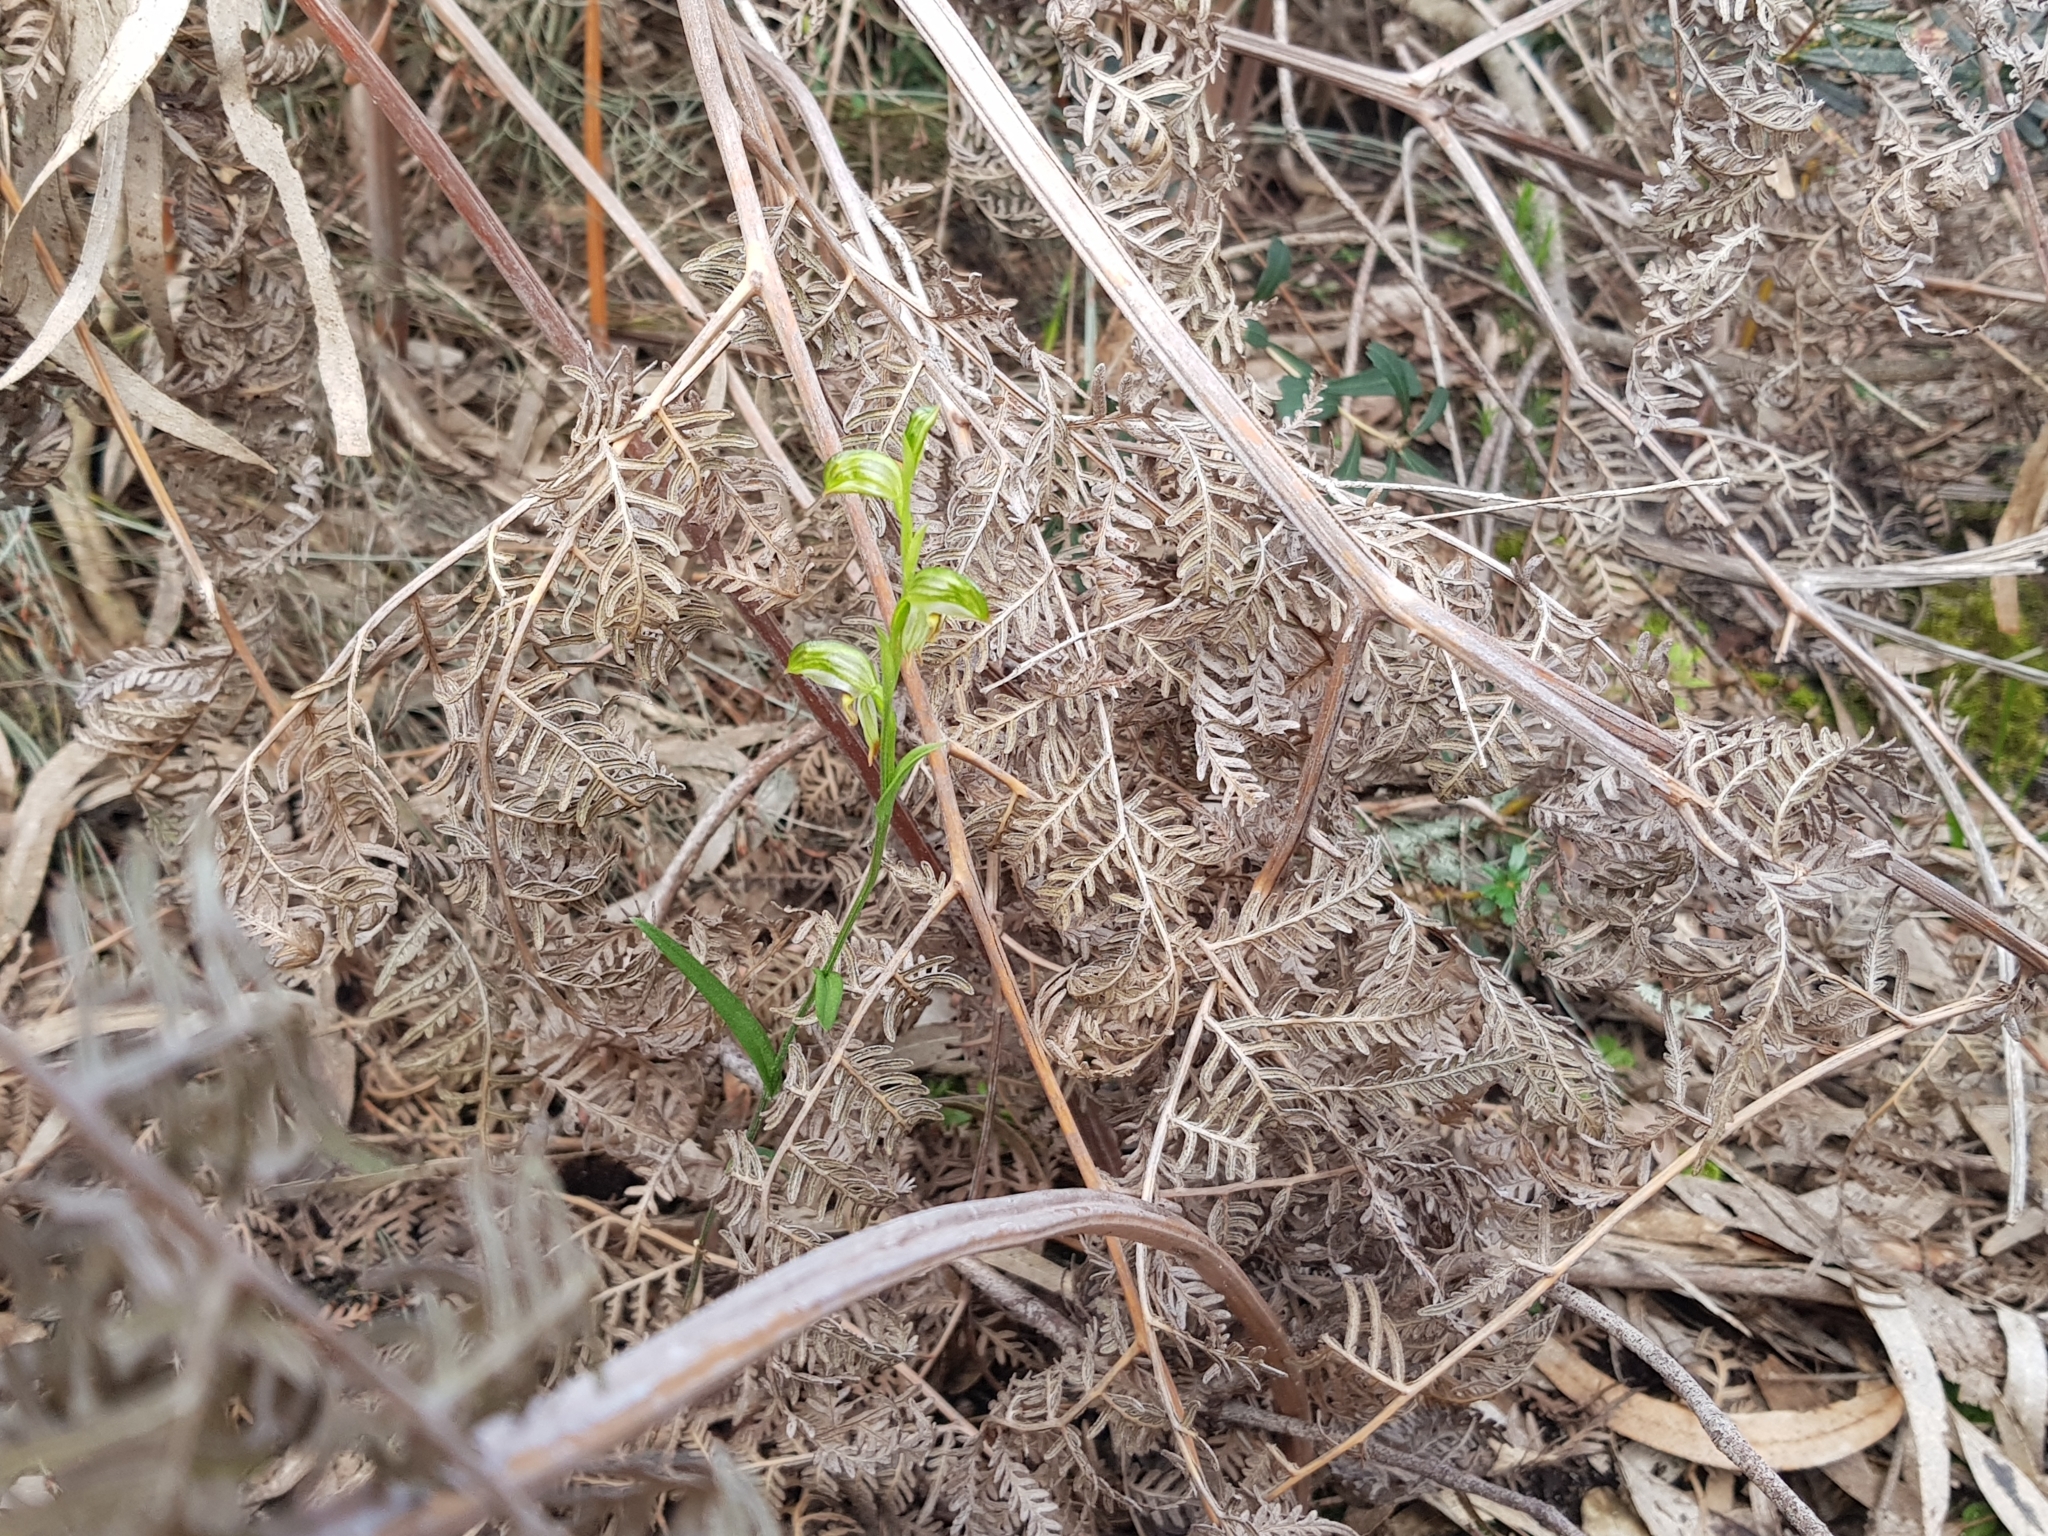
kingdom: Plantae
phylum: Tracheophyta
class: Liliopsida
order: Asparagales
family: Orchidaceae
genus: Pterostylis
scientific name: Pterostylis melagramma
